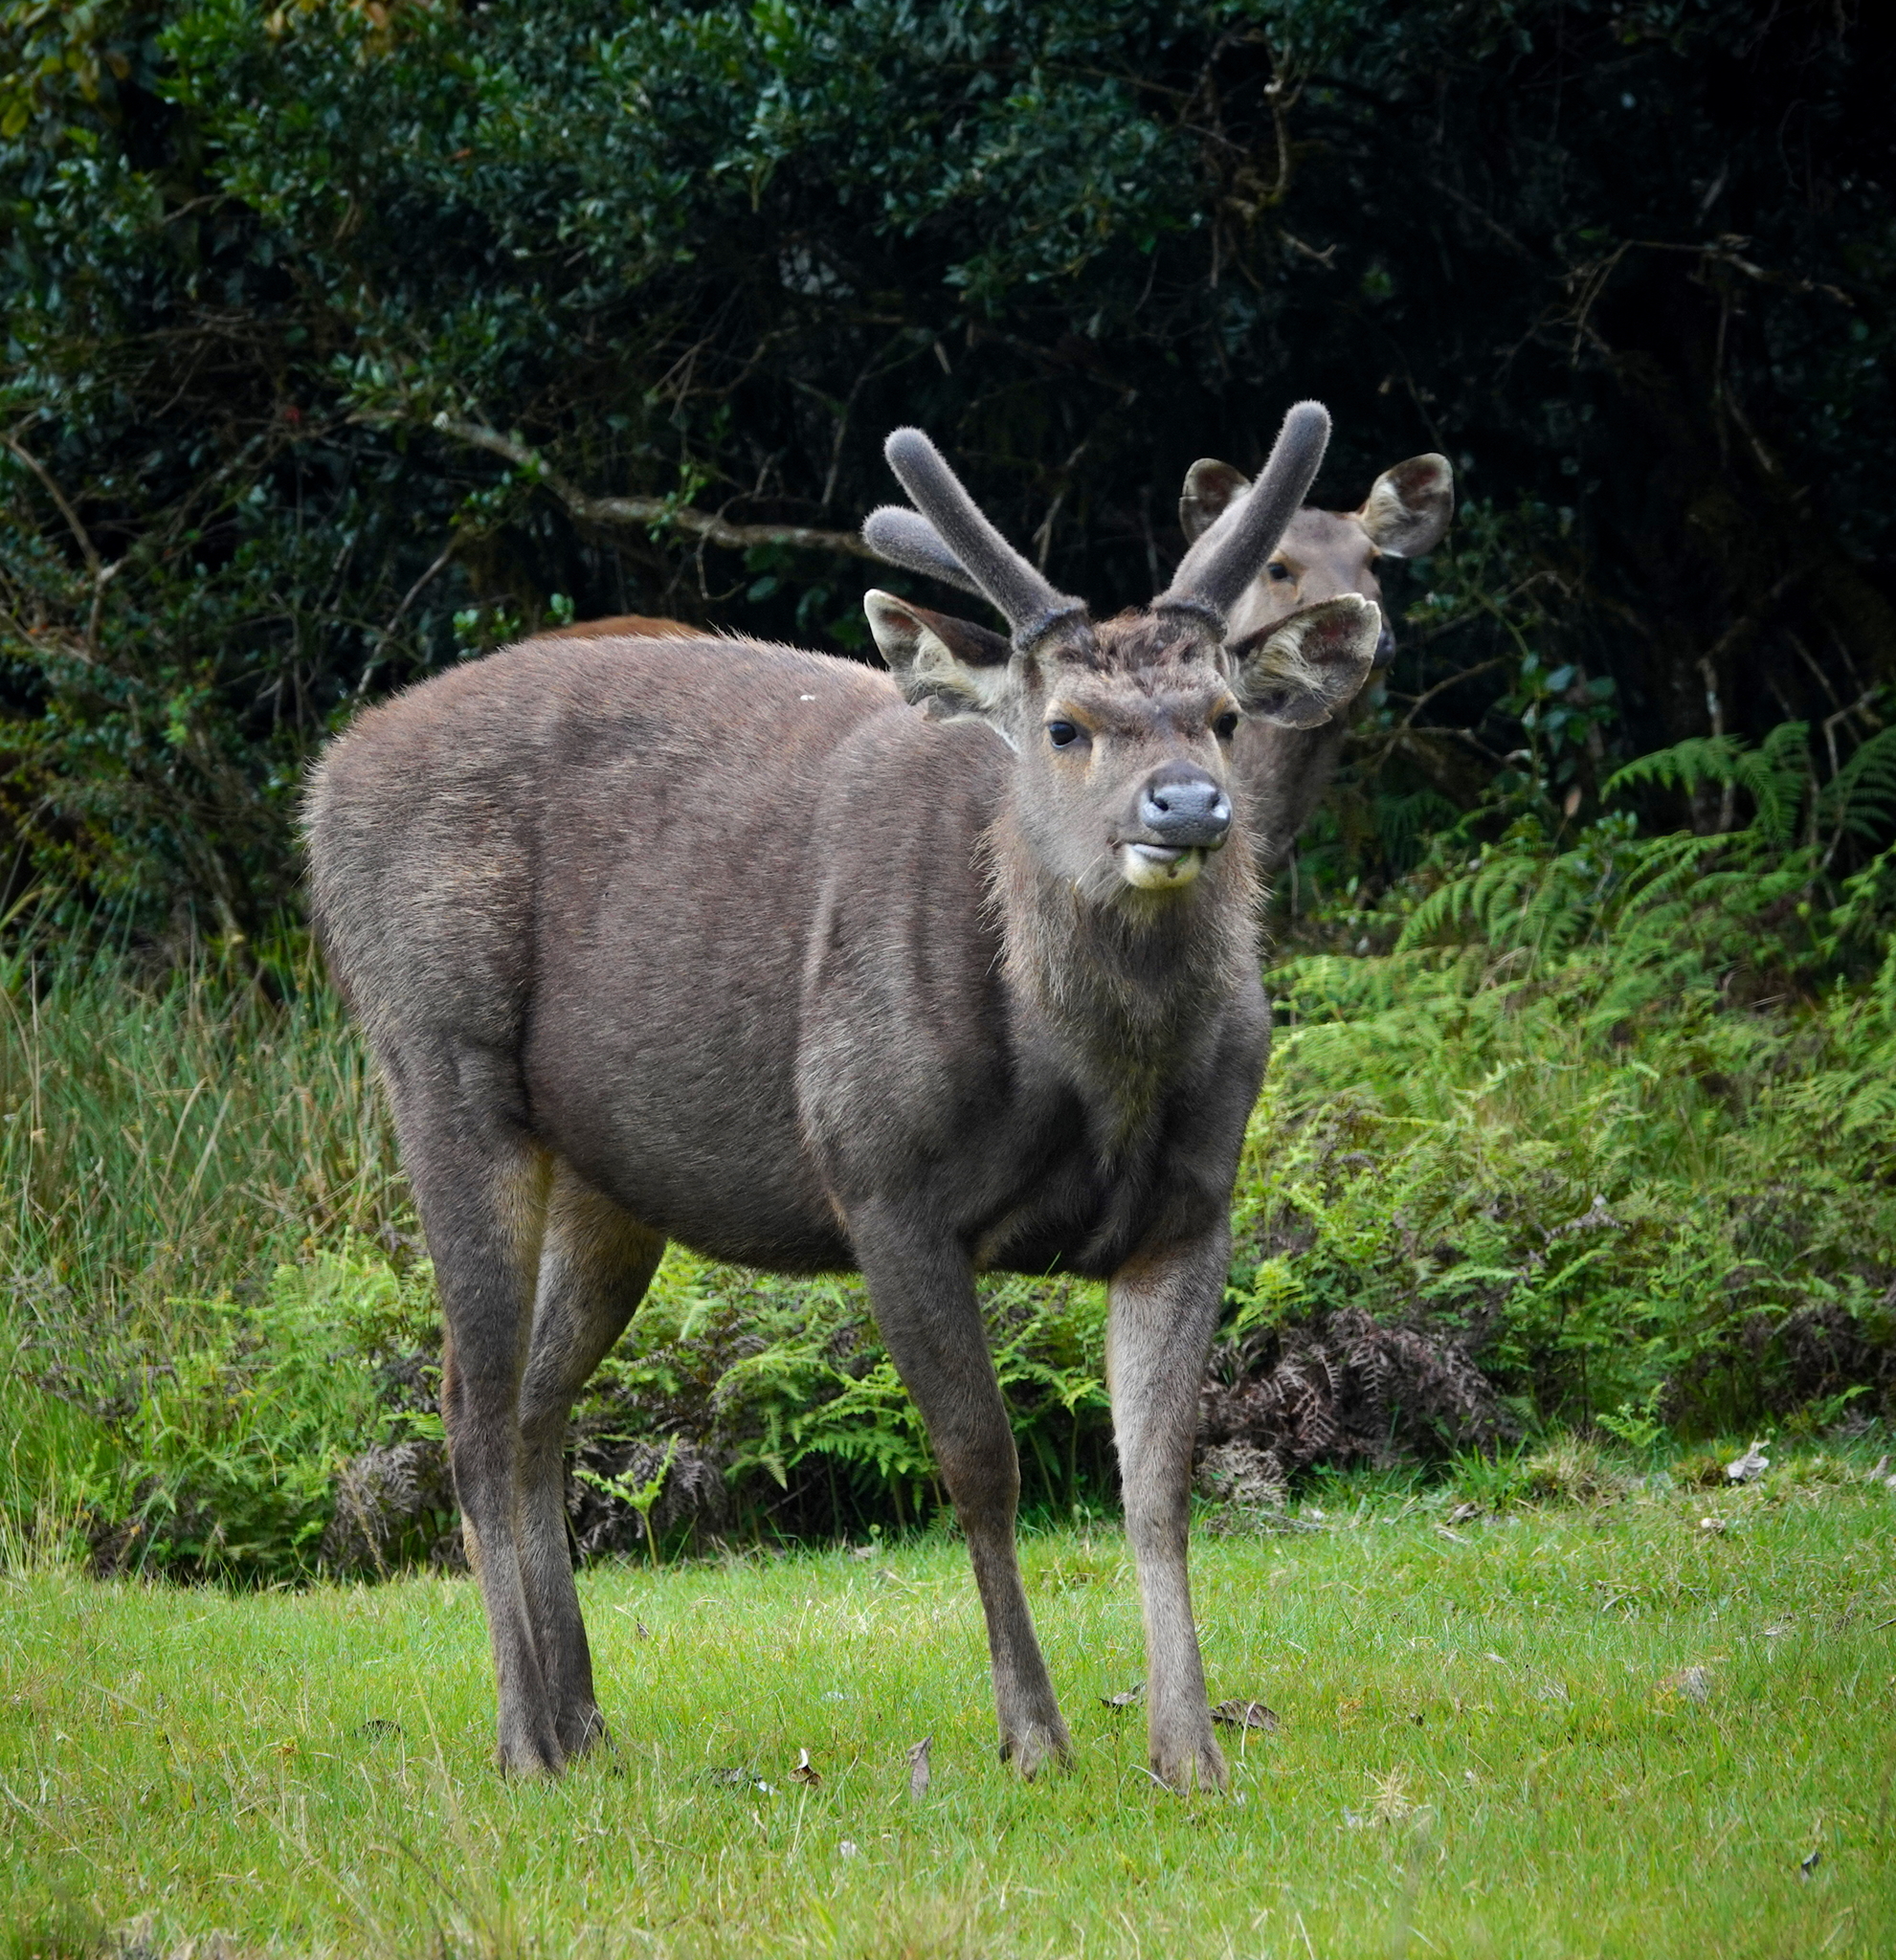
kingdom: Animalia
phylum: Chordata
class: Mammalia
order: Artiodactyla
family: Cervidae
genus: Rusa
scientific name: Rusa unicolor
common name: Sambar
